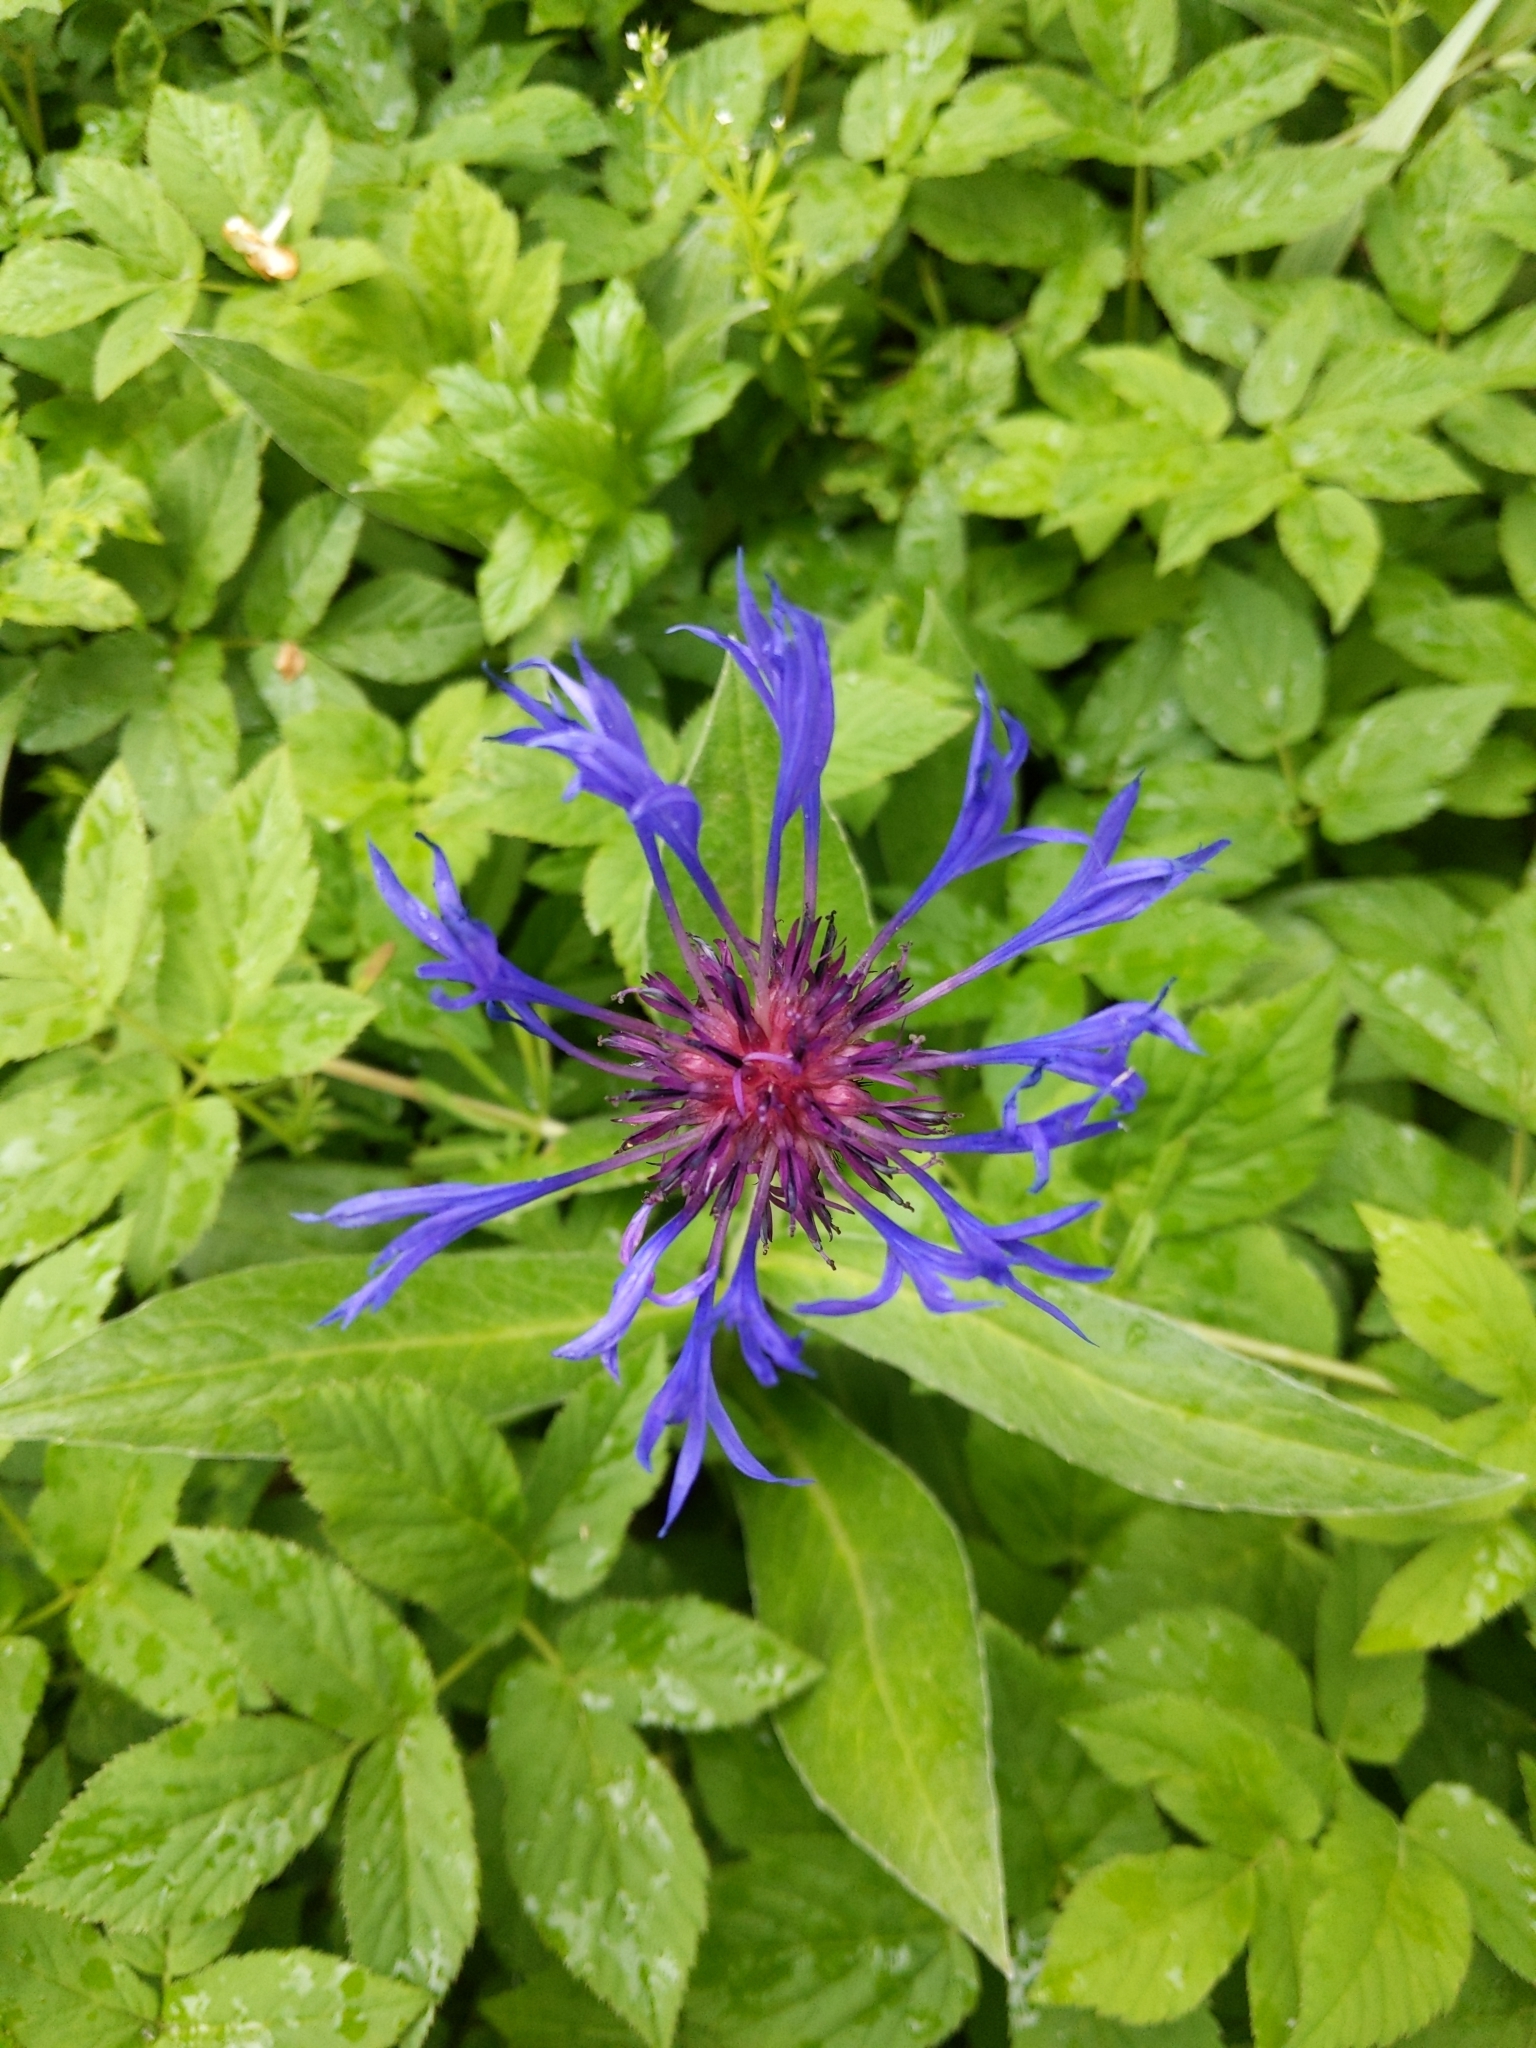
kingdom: Plantae
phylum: Tracheophyta
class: Magnoliopsida
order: Asterales
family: Asteraceae
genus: Centaurea
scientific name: Centaurea montana
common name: Perennial cornflower
